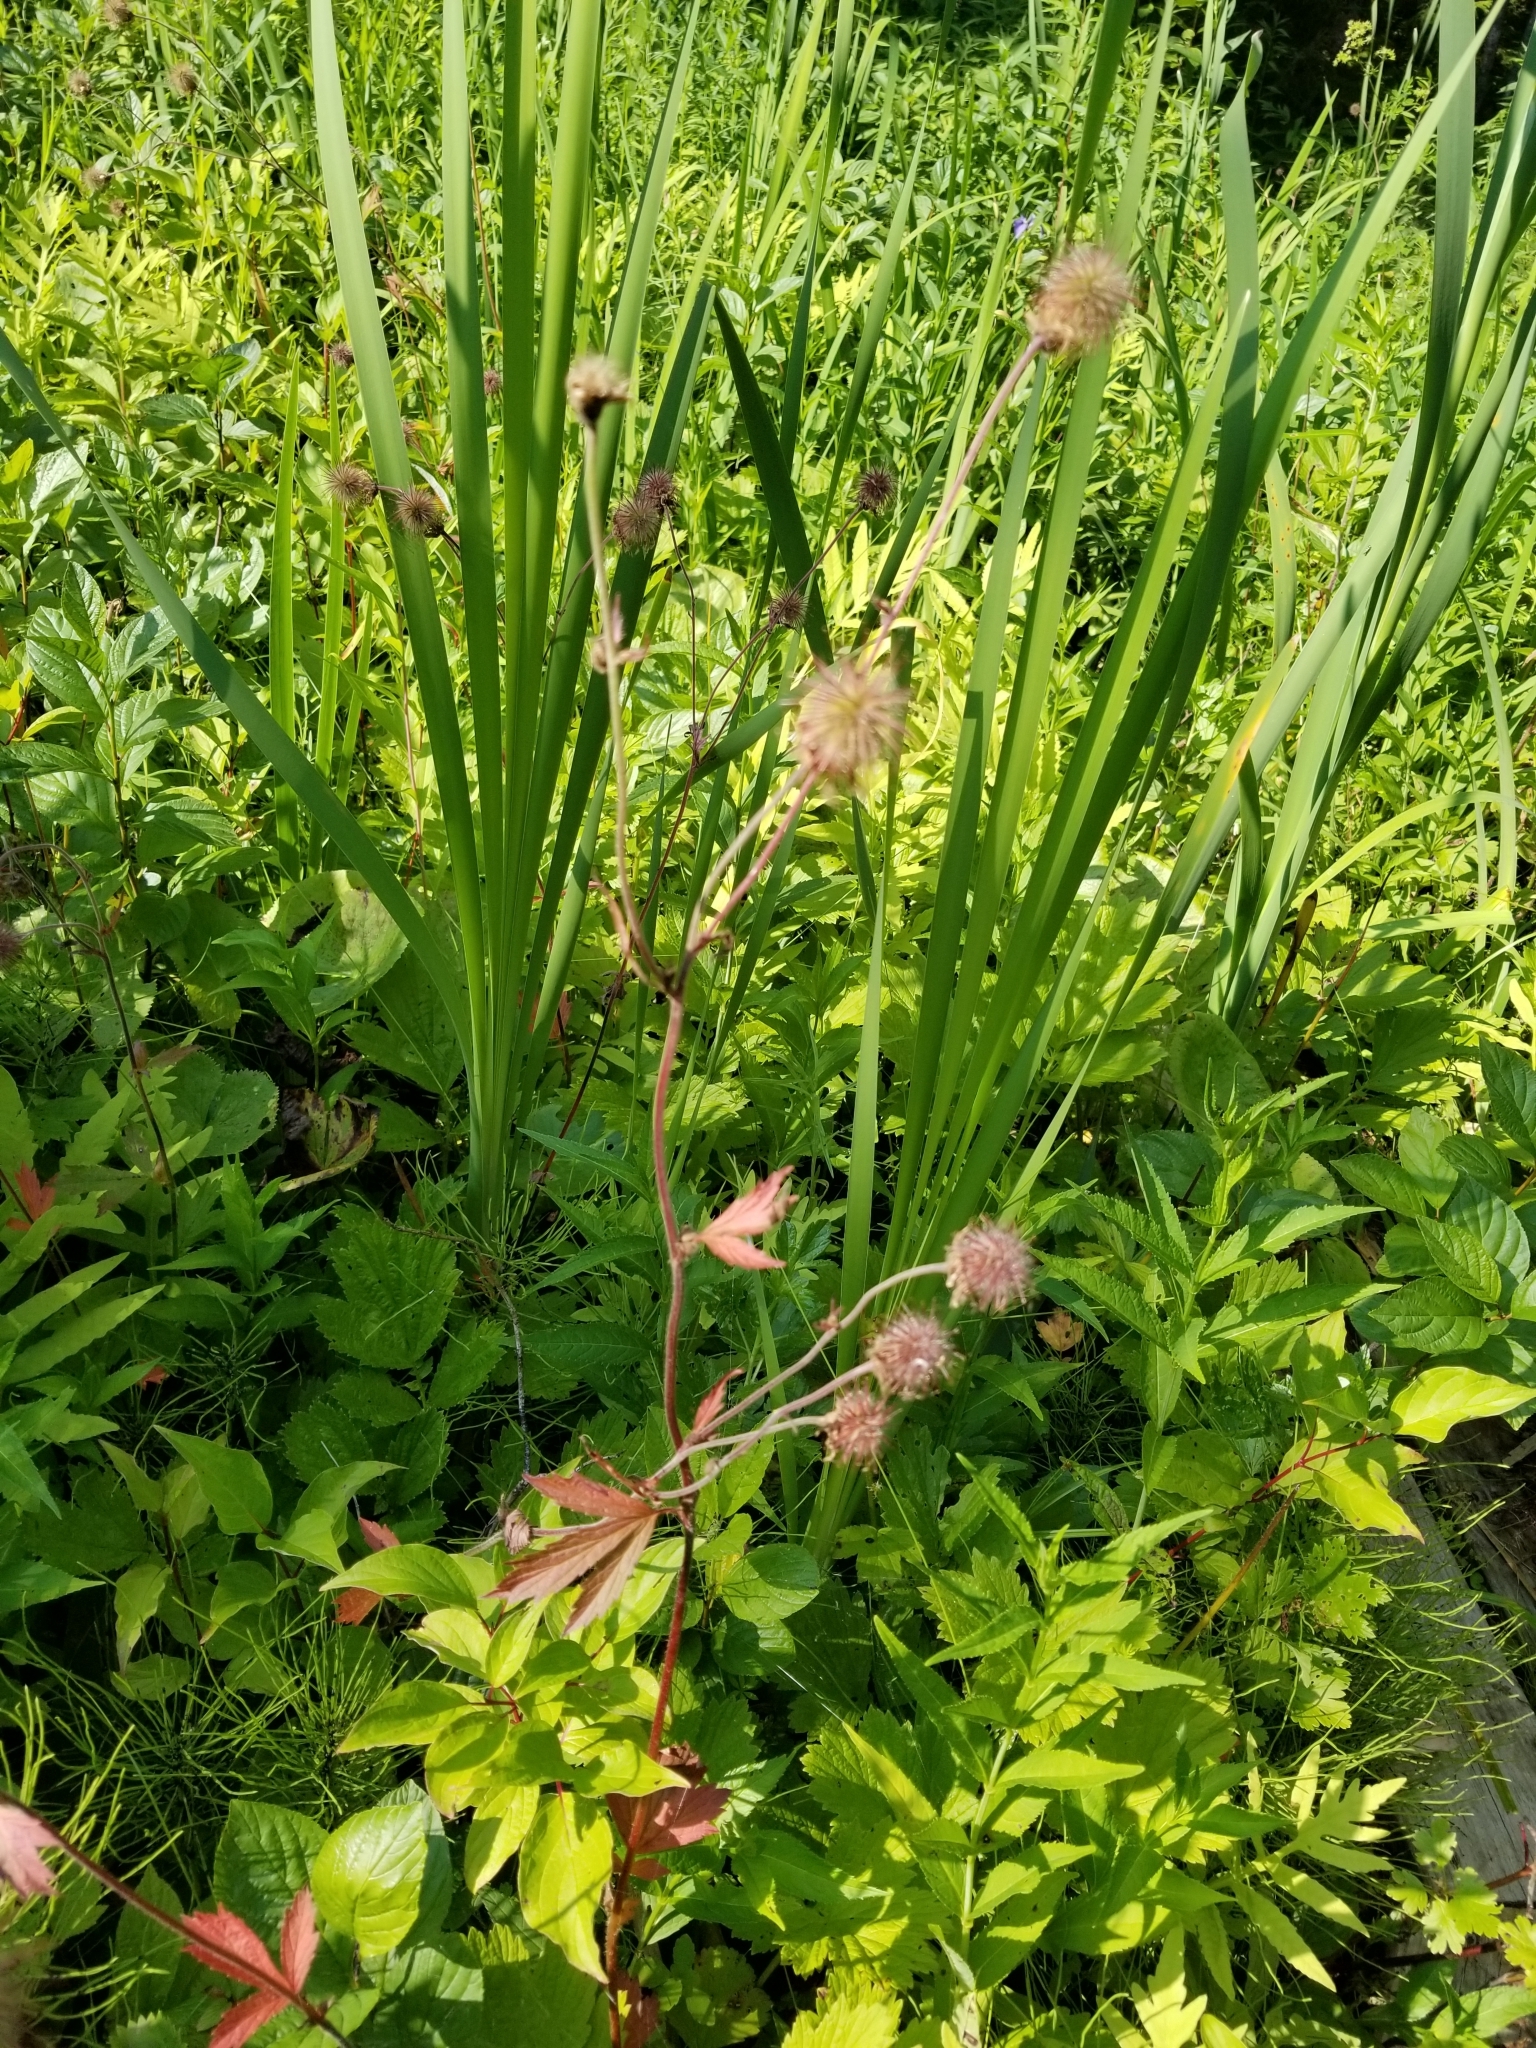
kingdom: Plantae
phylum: Tracheophyta
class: Magnoliopsida
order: Rosales
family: Rosaceae
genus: Geum
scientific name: Geum rivale
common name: Water avens
